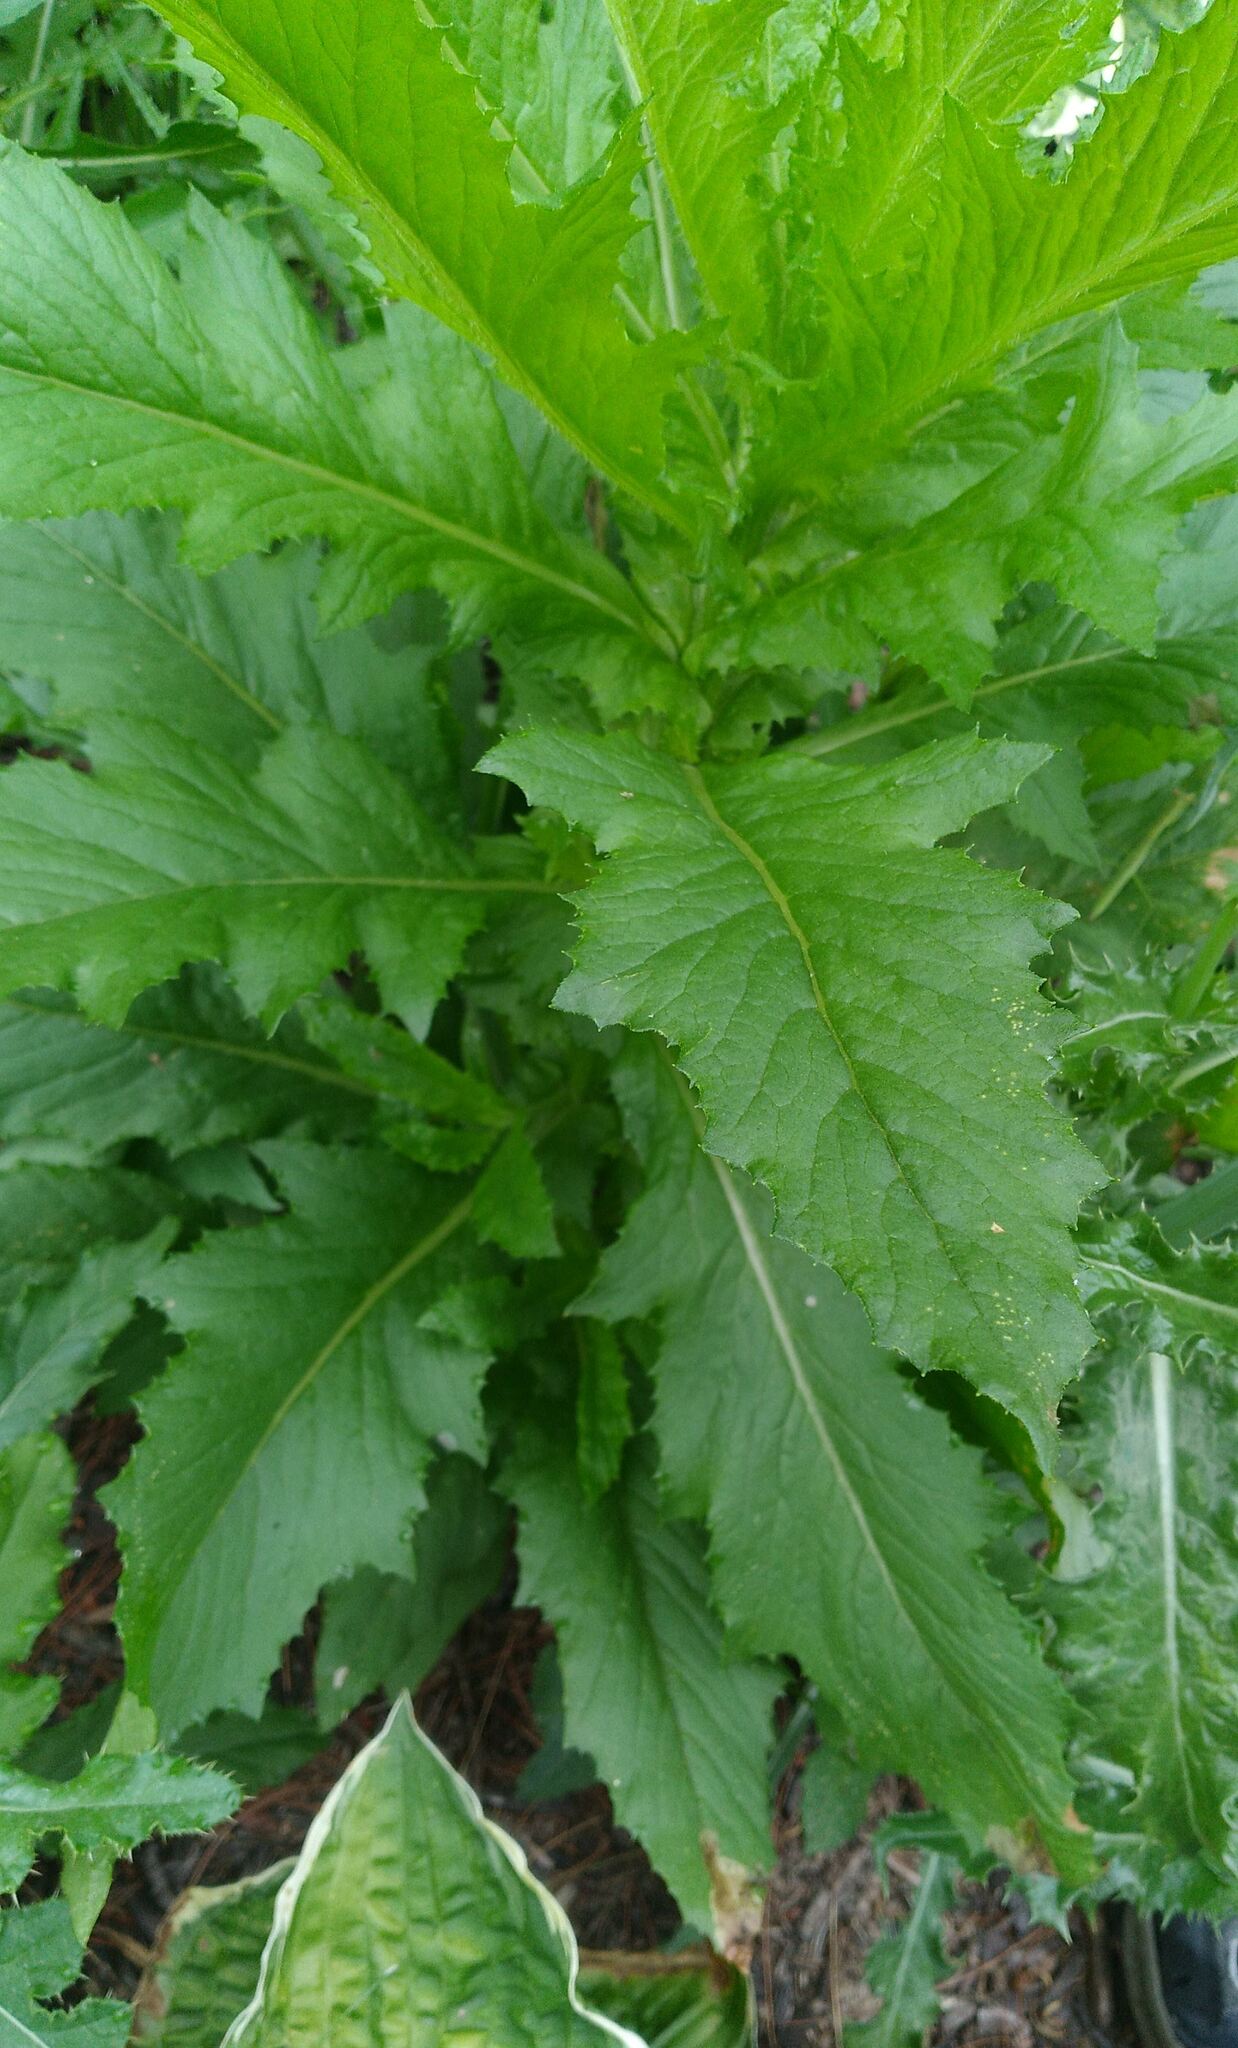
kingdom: Animalia
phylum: Arthropoda
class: Insecta
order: Diptera
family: Agromyzidae
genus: Nemorimyza
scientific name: Nemorimyza maculosa
